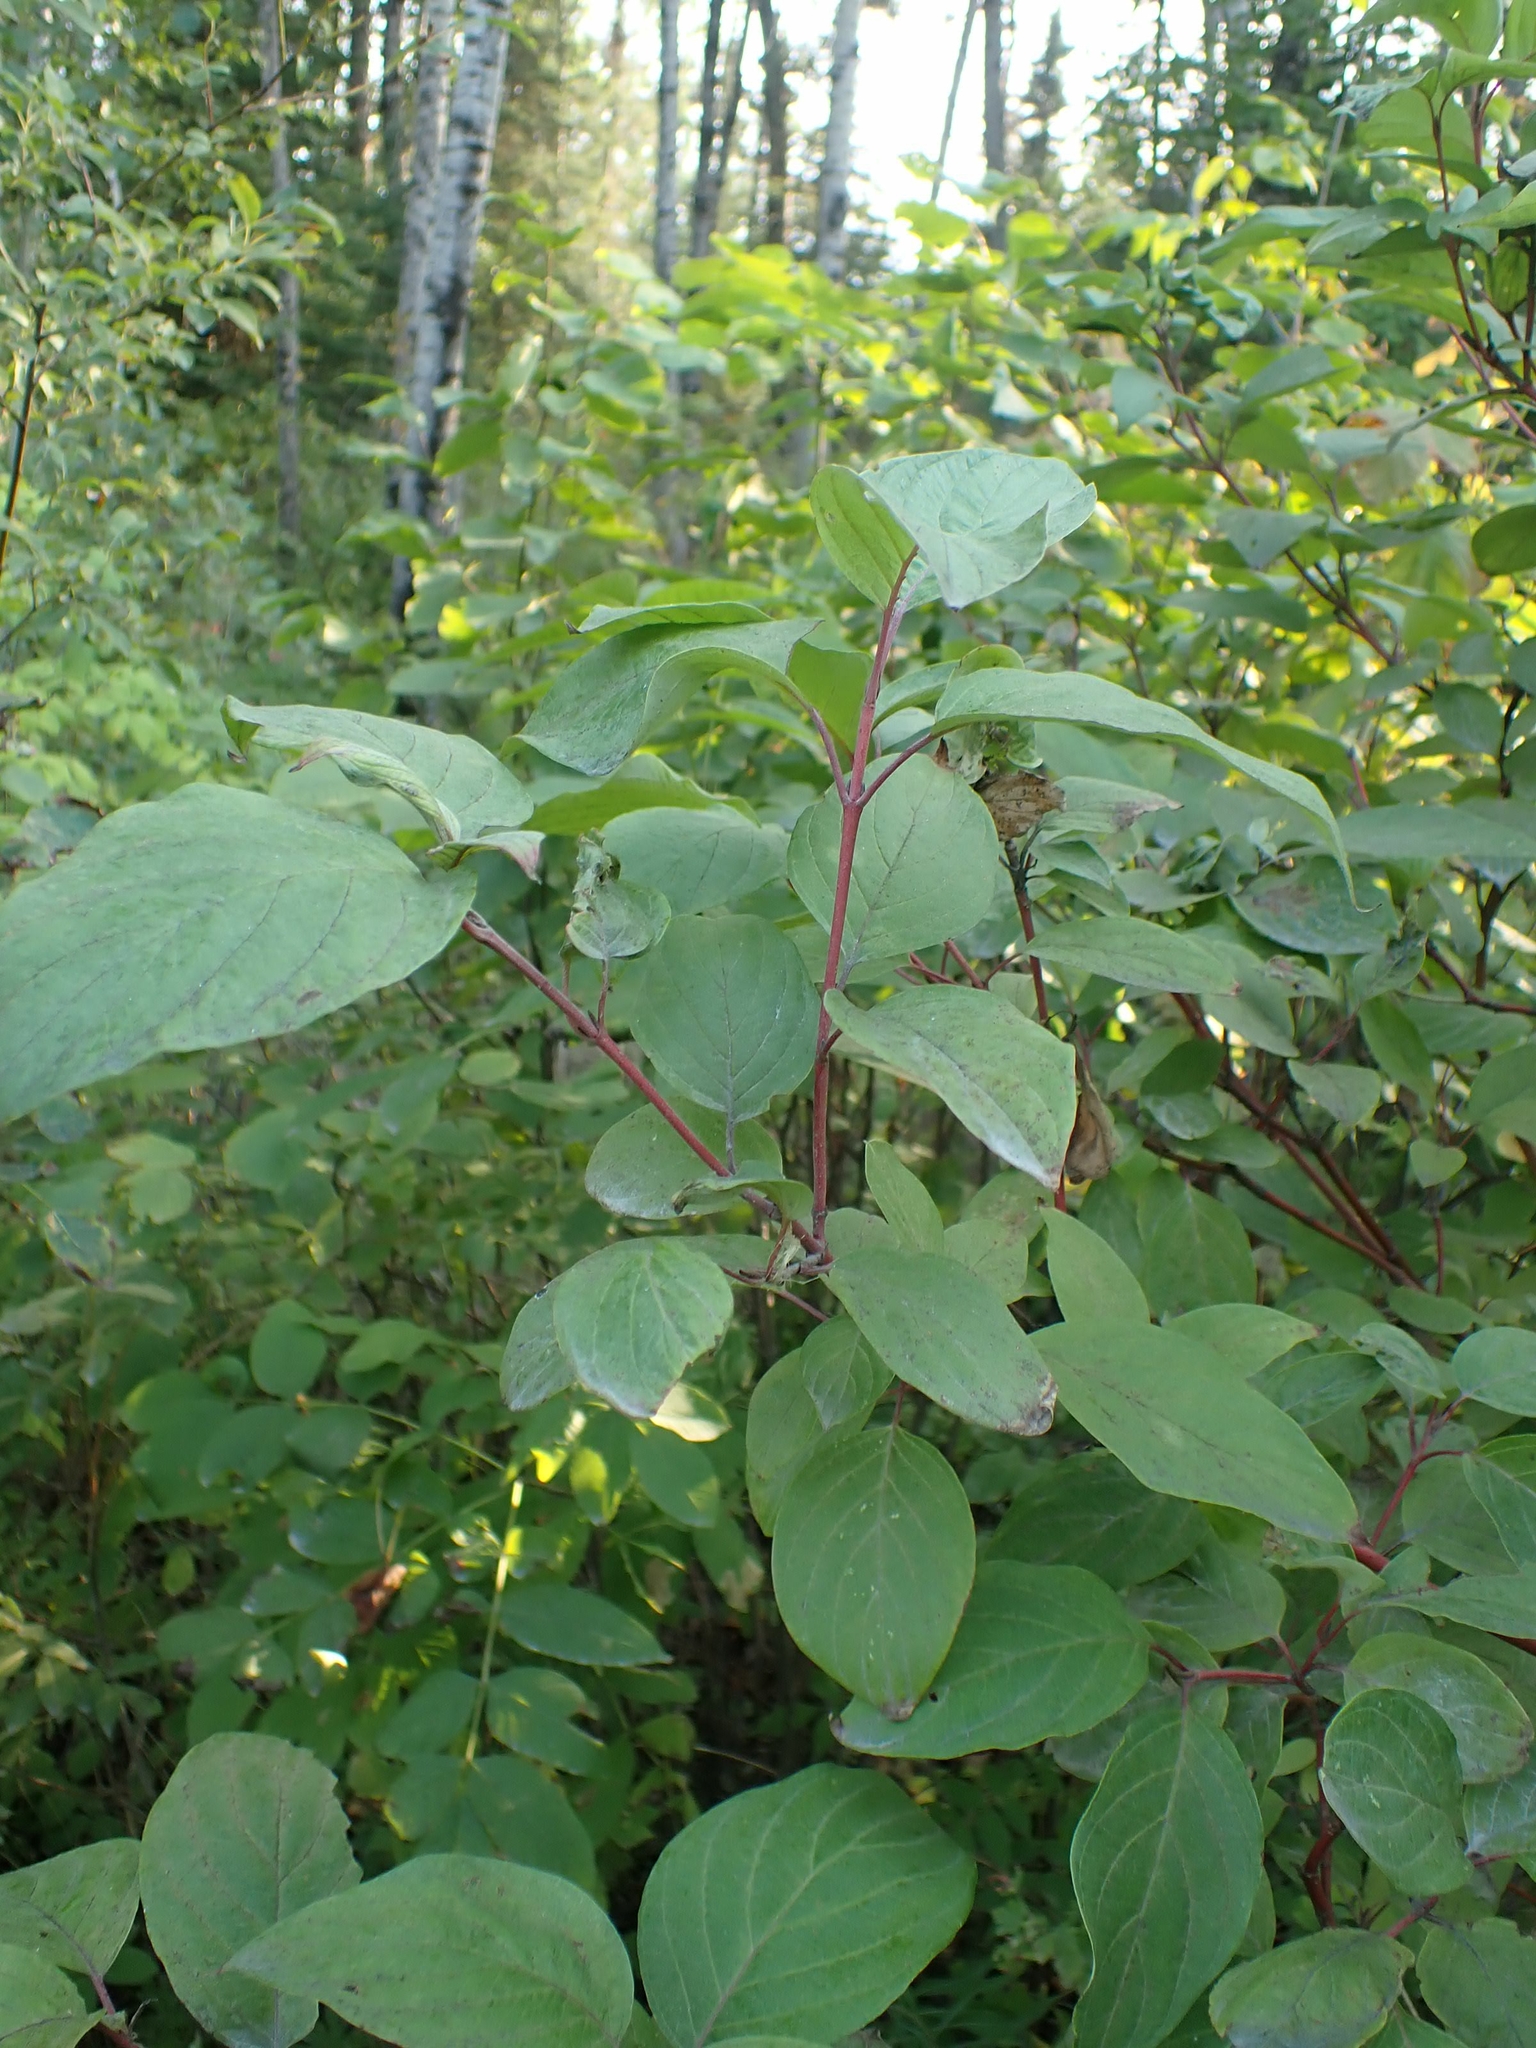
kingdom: Plantae
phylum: Tracheophyta
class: Magnoliopsida
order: Cornales
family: Cornaceae
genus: Cornus
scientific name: Cornus sericea
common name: Red-osier dogwood
